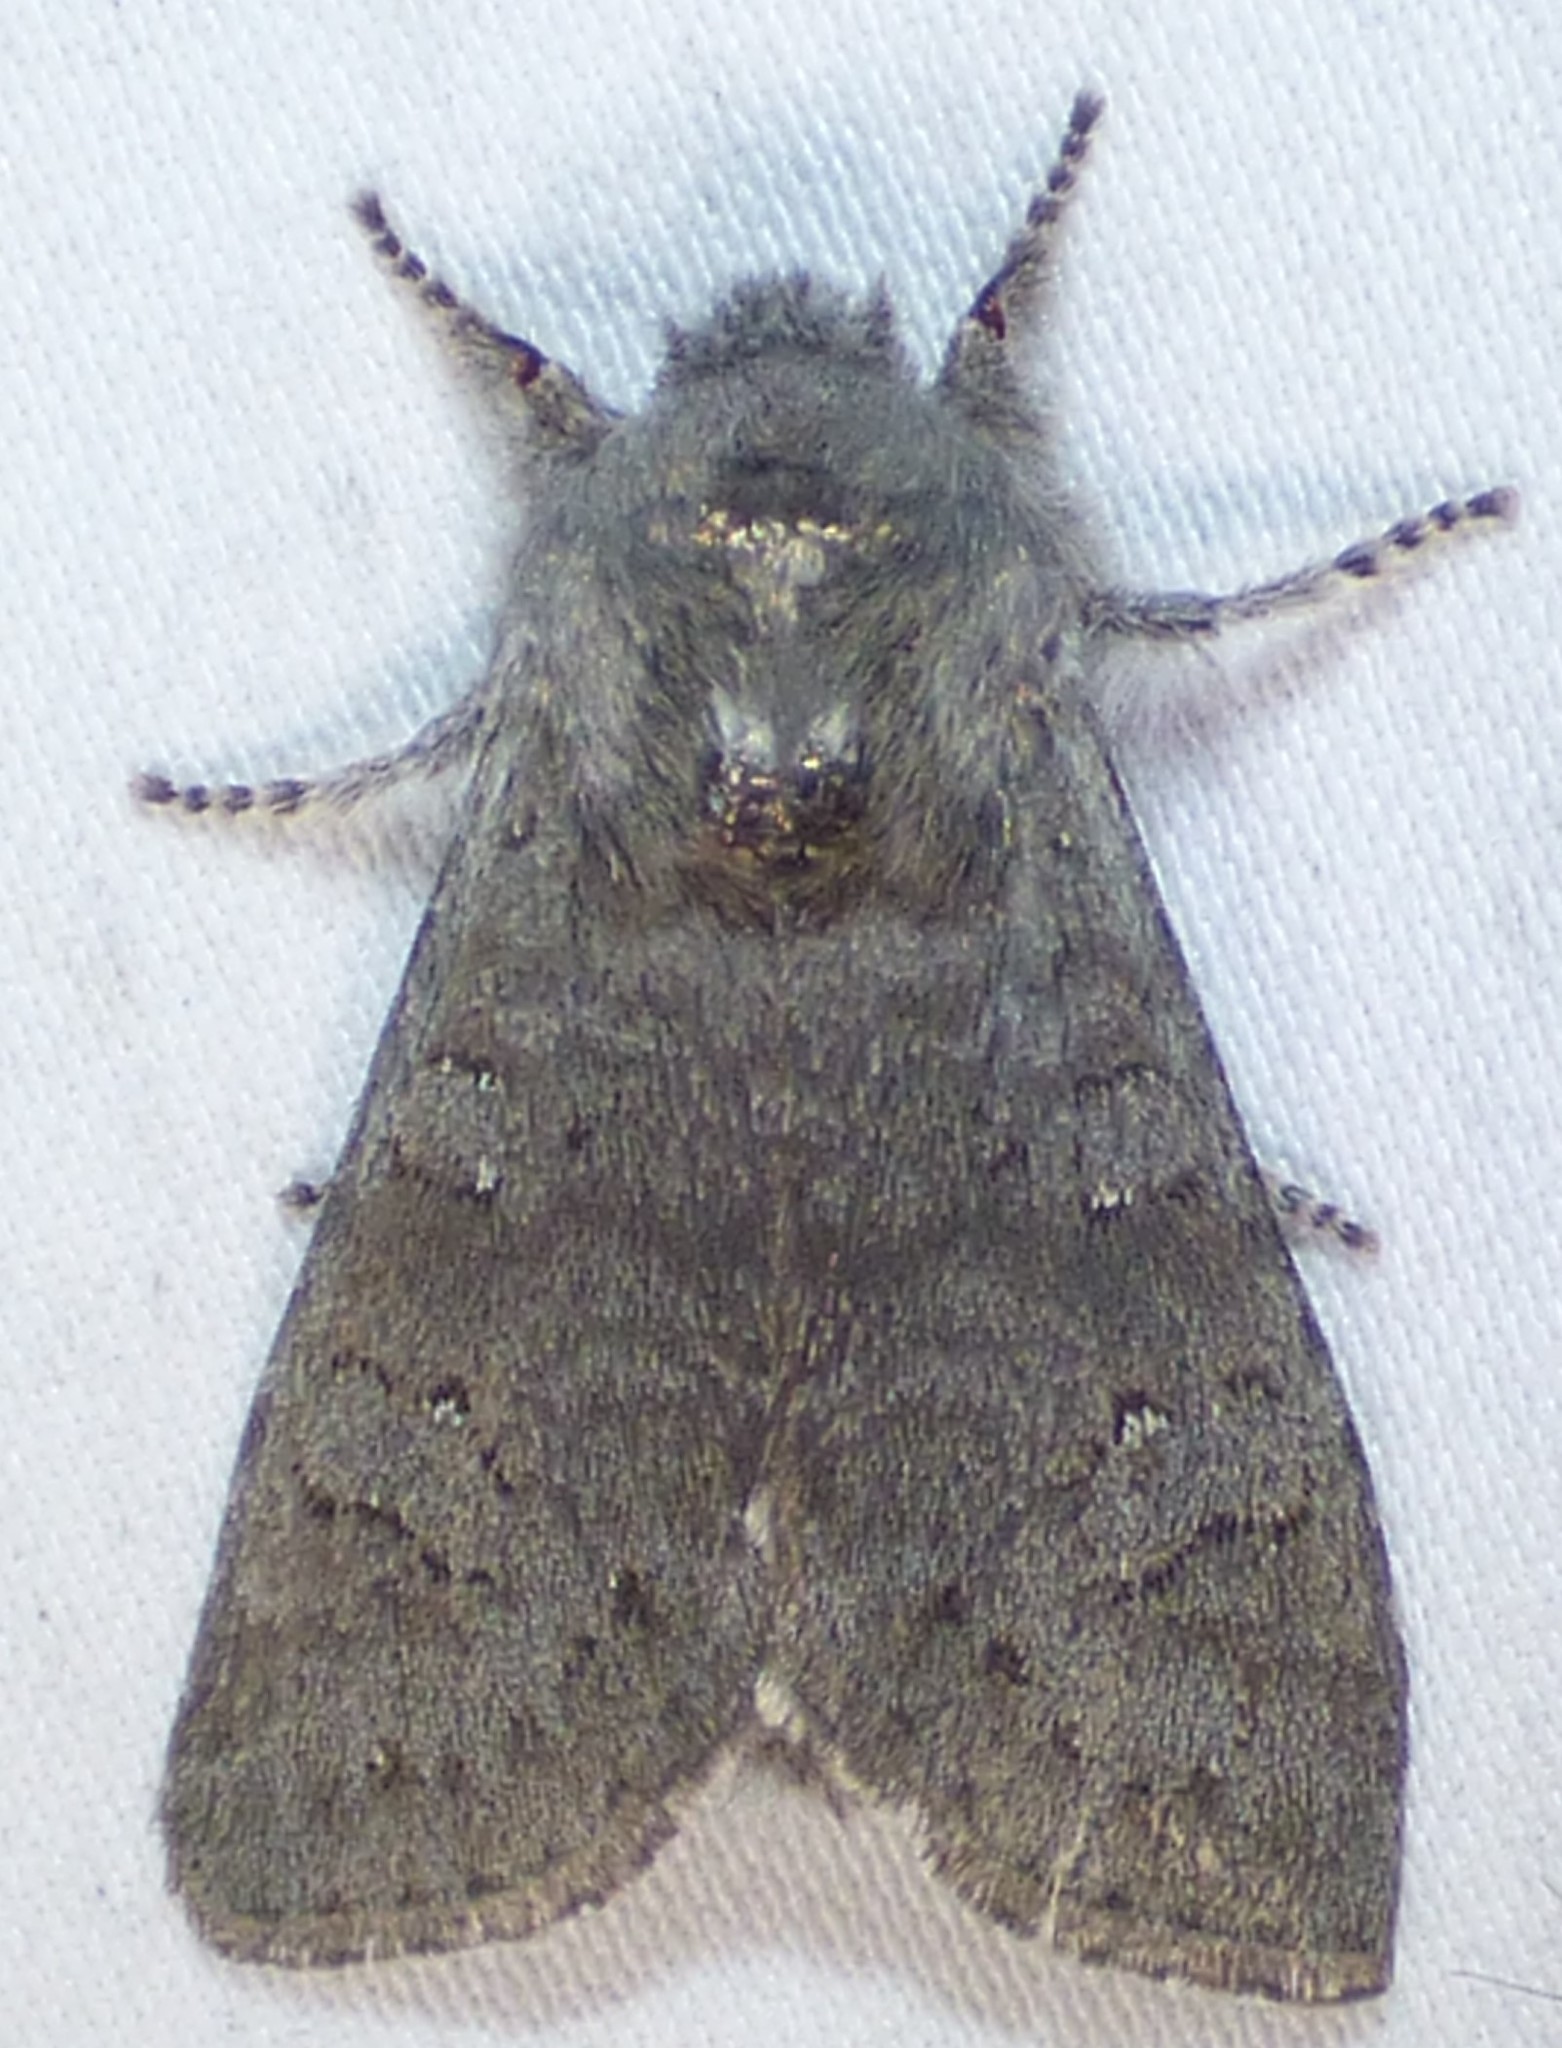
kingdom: Animalia
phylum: Arthropoda
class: Insecta
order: Lepidoptera
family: Noctuidae
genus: Psaphida
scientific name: Psaphida rolandi
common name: Roland's sallow
